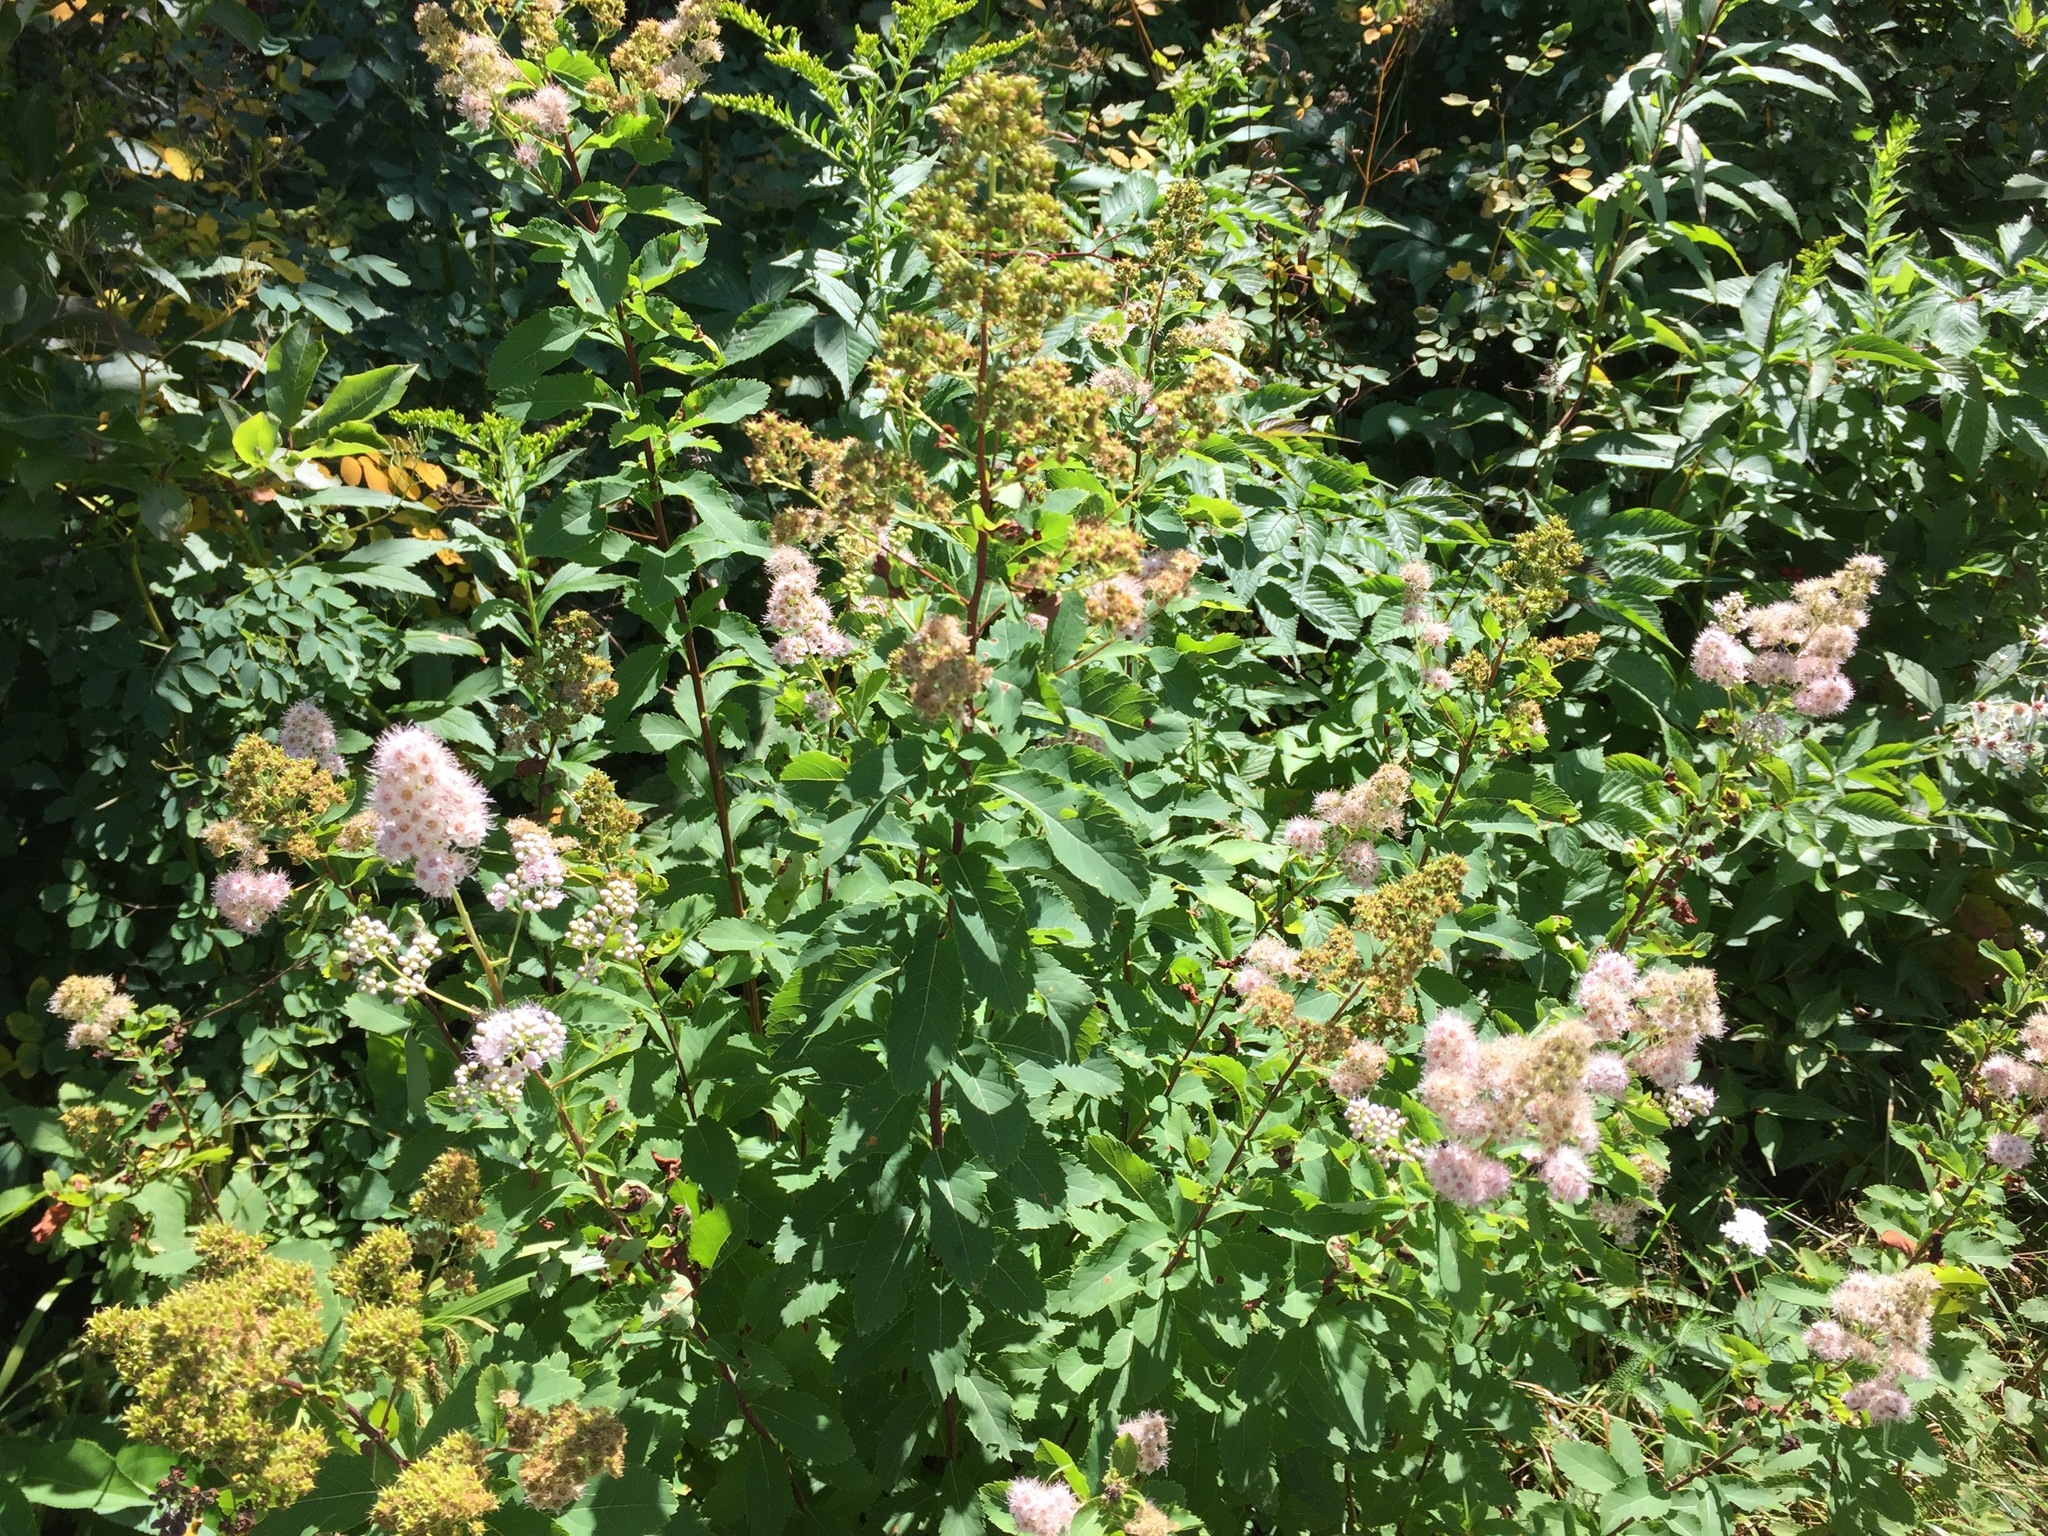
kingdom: Plantae
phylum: Tracheophyta
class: Magnoliopsida
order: Rosales
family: Rosaceae
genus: Spiraea
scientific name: Spiraea alba
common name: Pale bridewort
